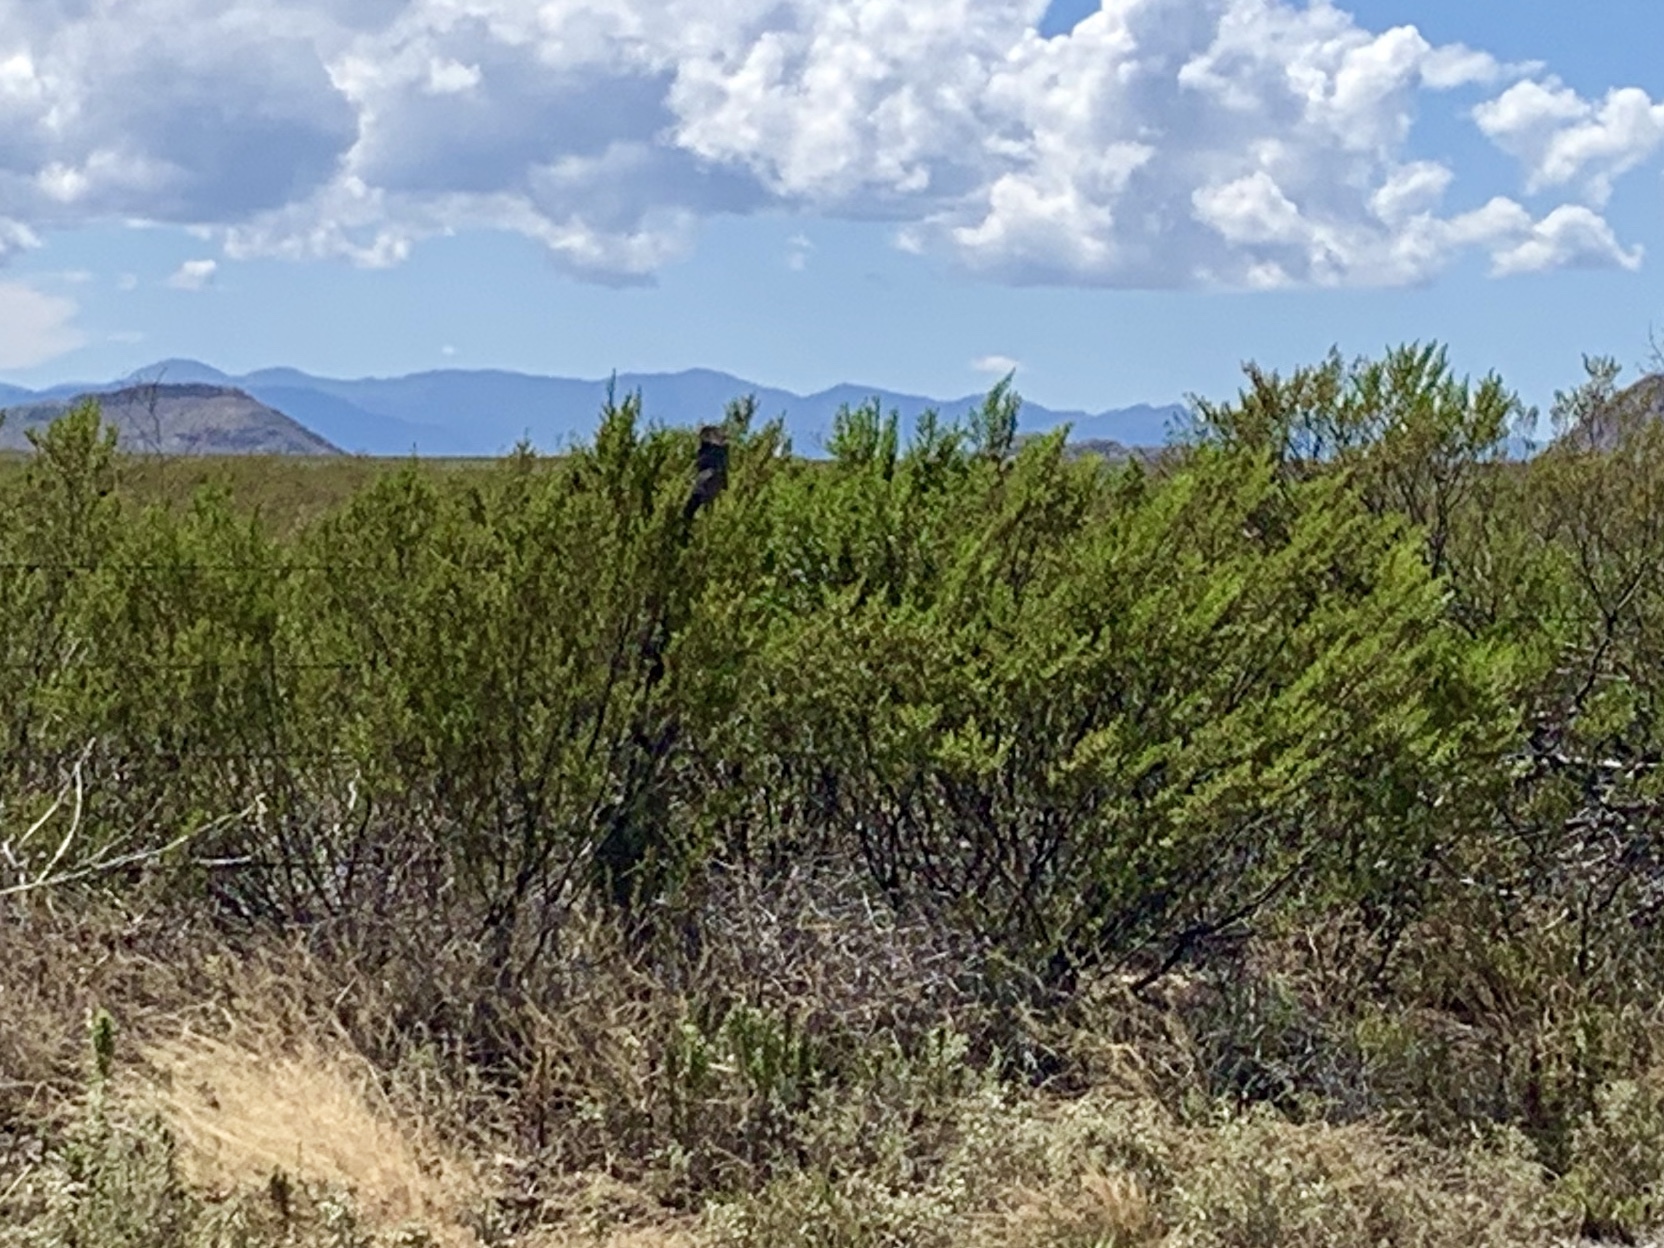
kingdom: Plantae
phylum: Tracheophyta
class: Magnoliopsida
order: Zygophyllales
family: Zygophyllaceae
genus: Larrea
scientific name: Larrea tridentata
